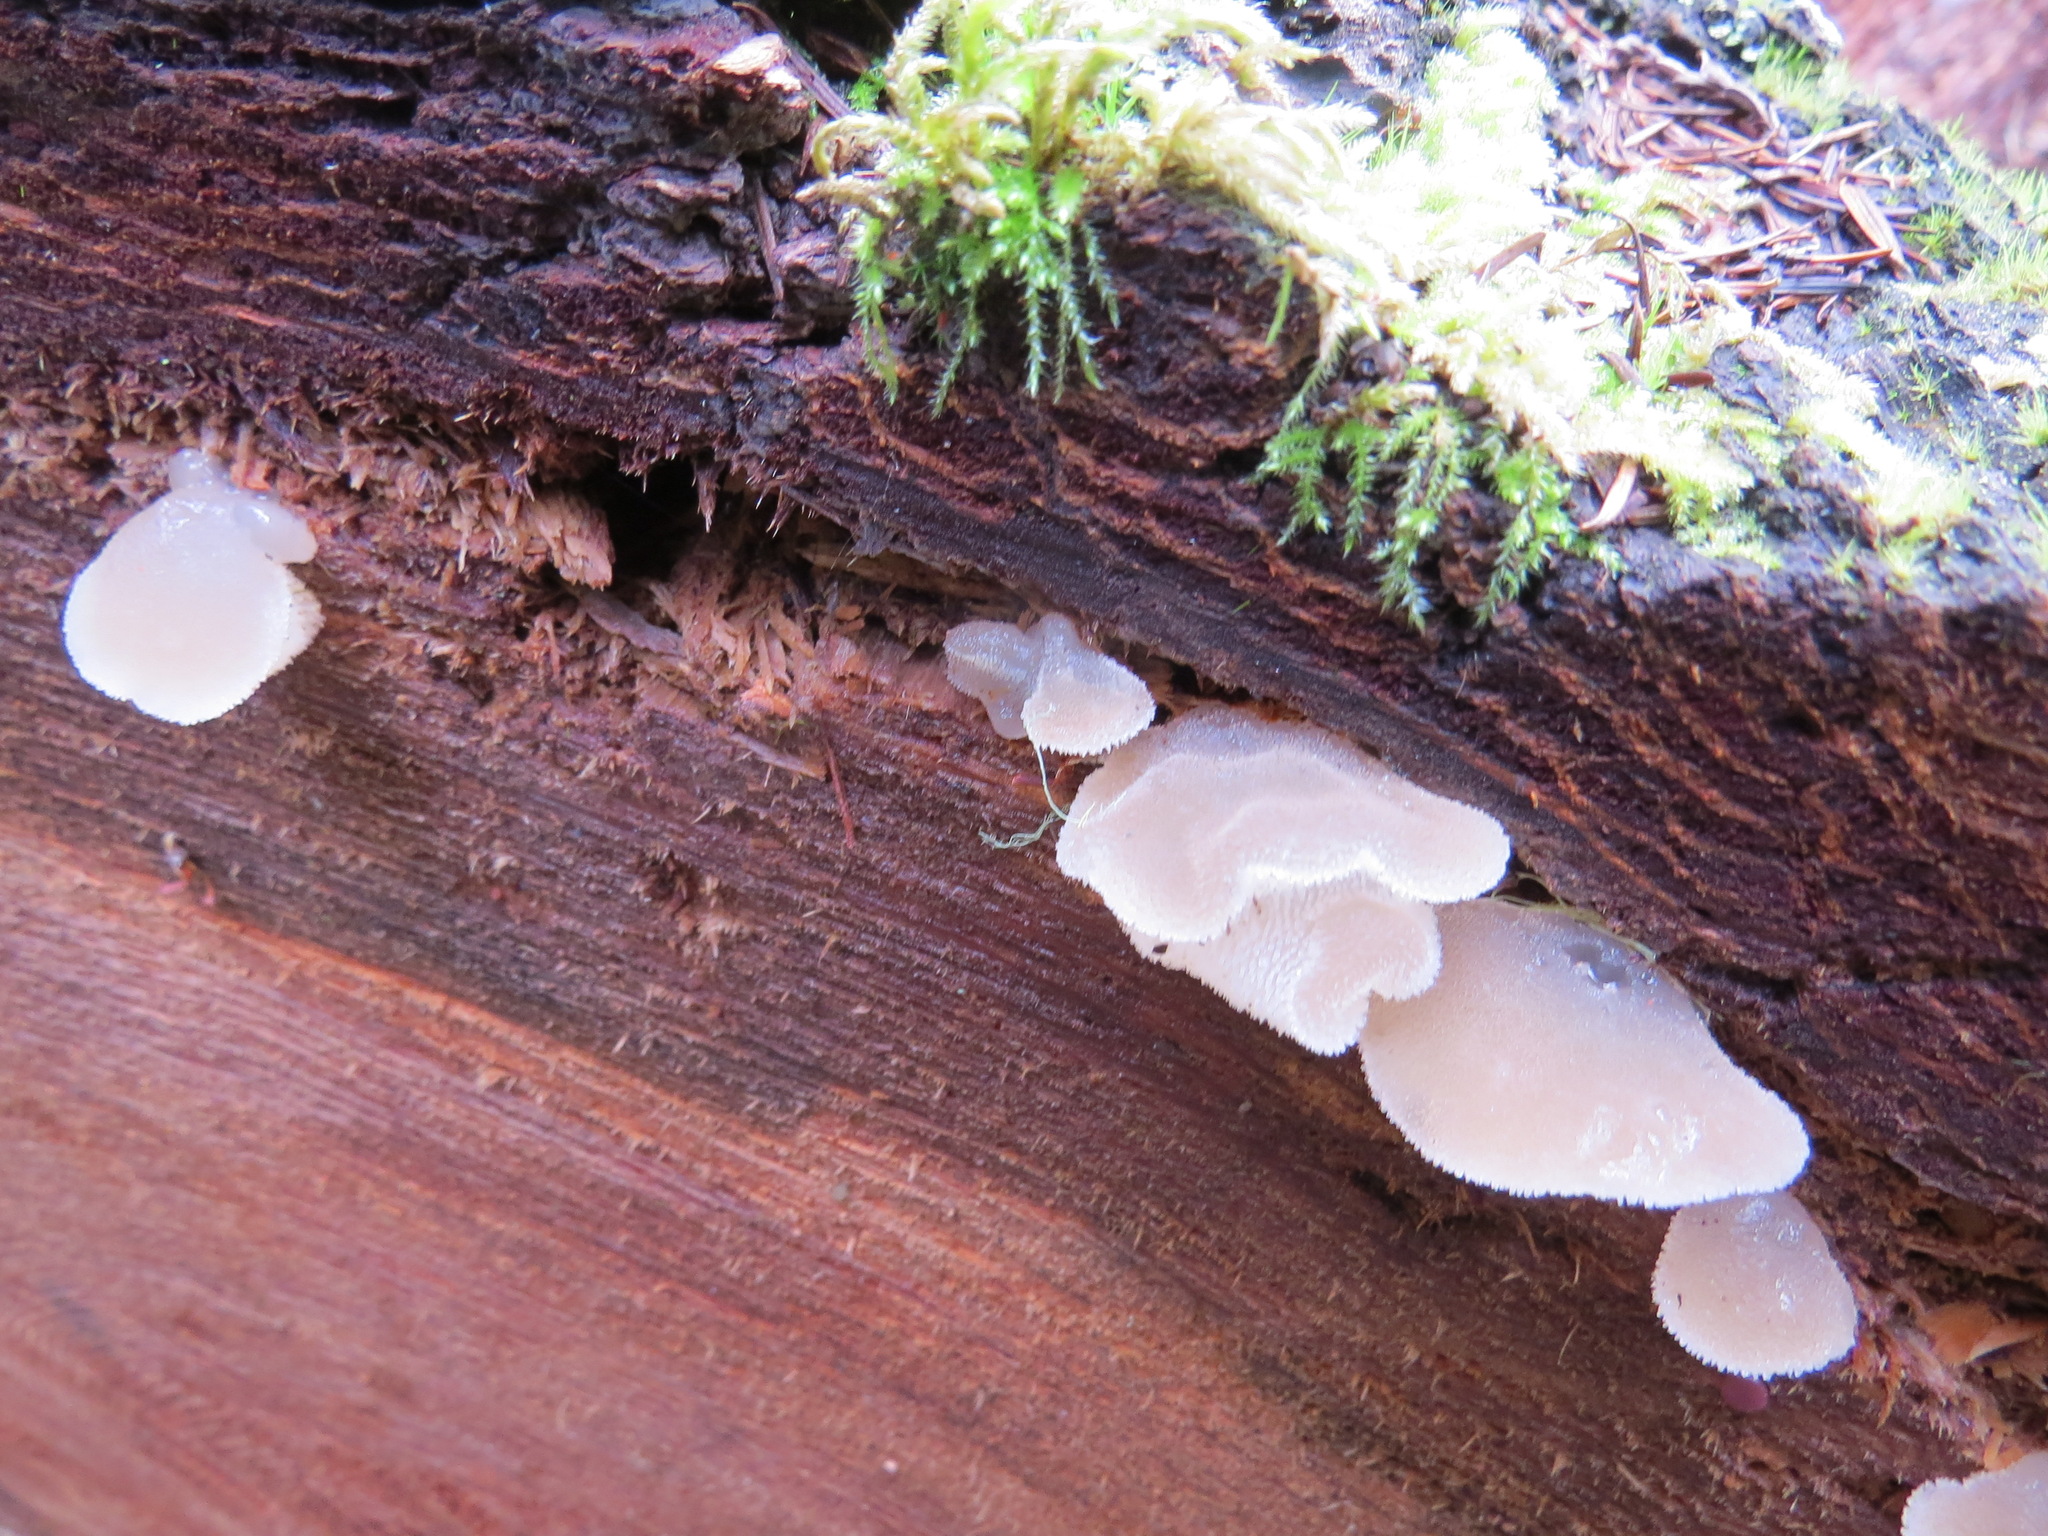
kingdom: Fungi
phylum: Basidiomycota
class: Agaricomycetes
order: Auriculariales
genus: Pseudohydnum
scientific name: Pseudohydnum gelatinosum
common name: Jelly tongue
